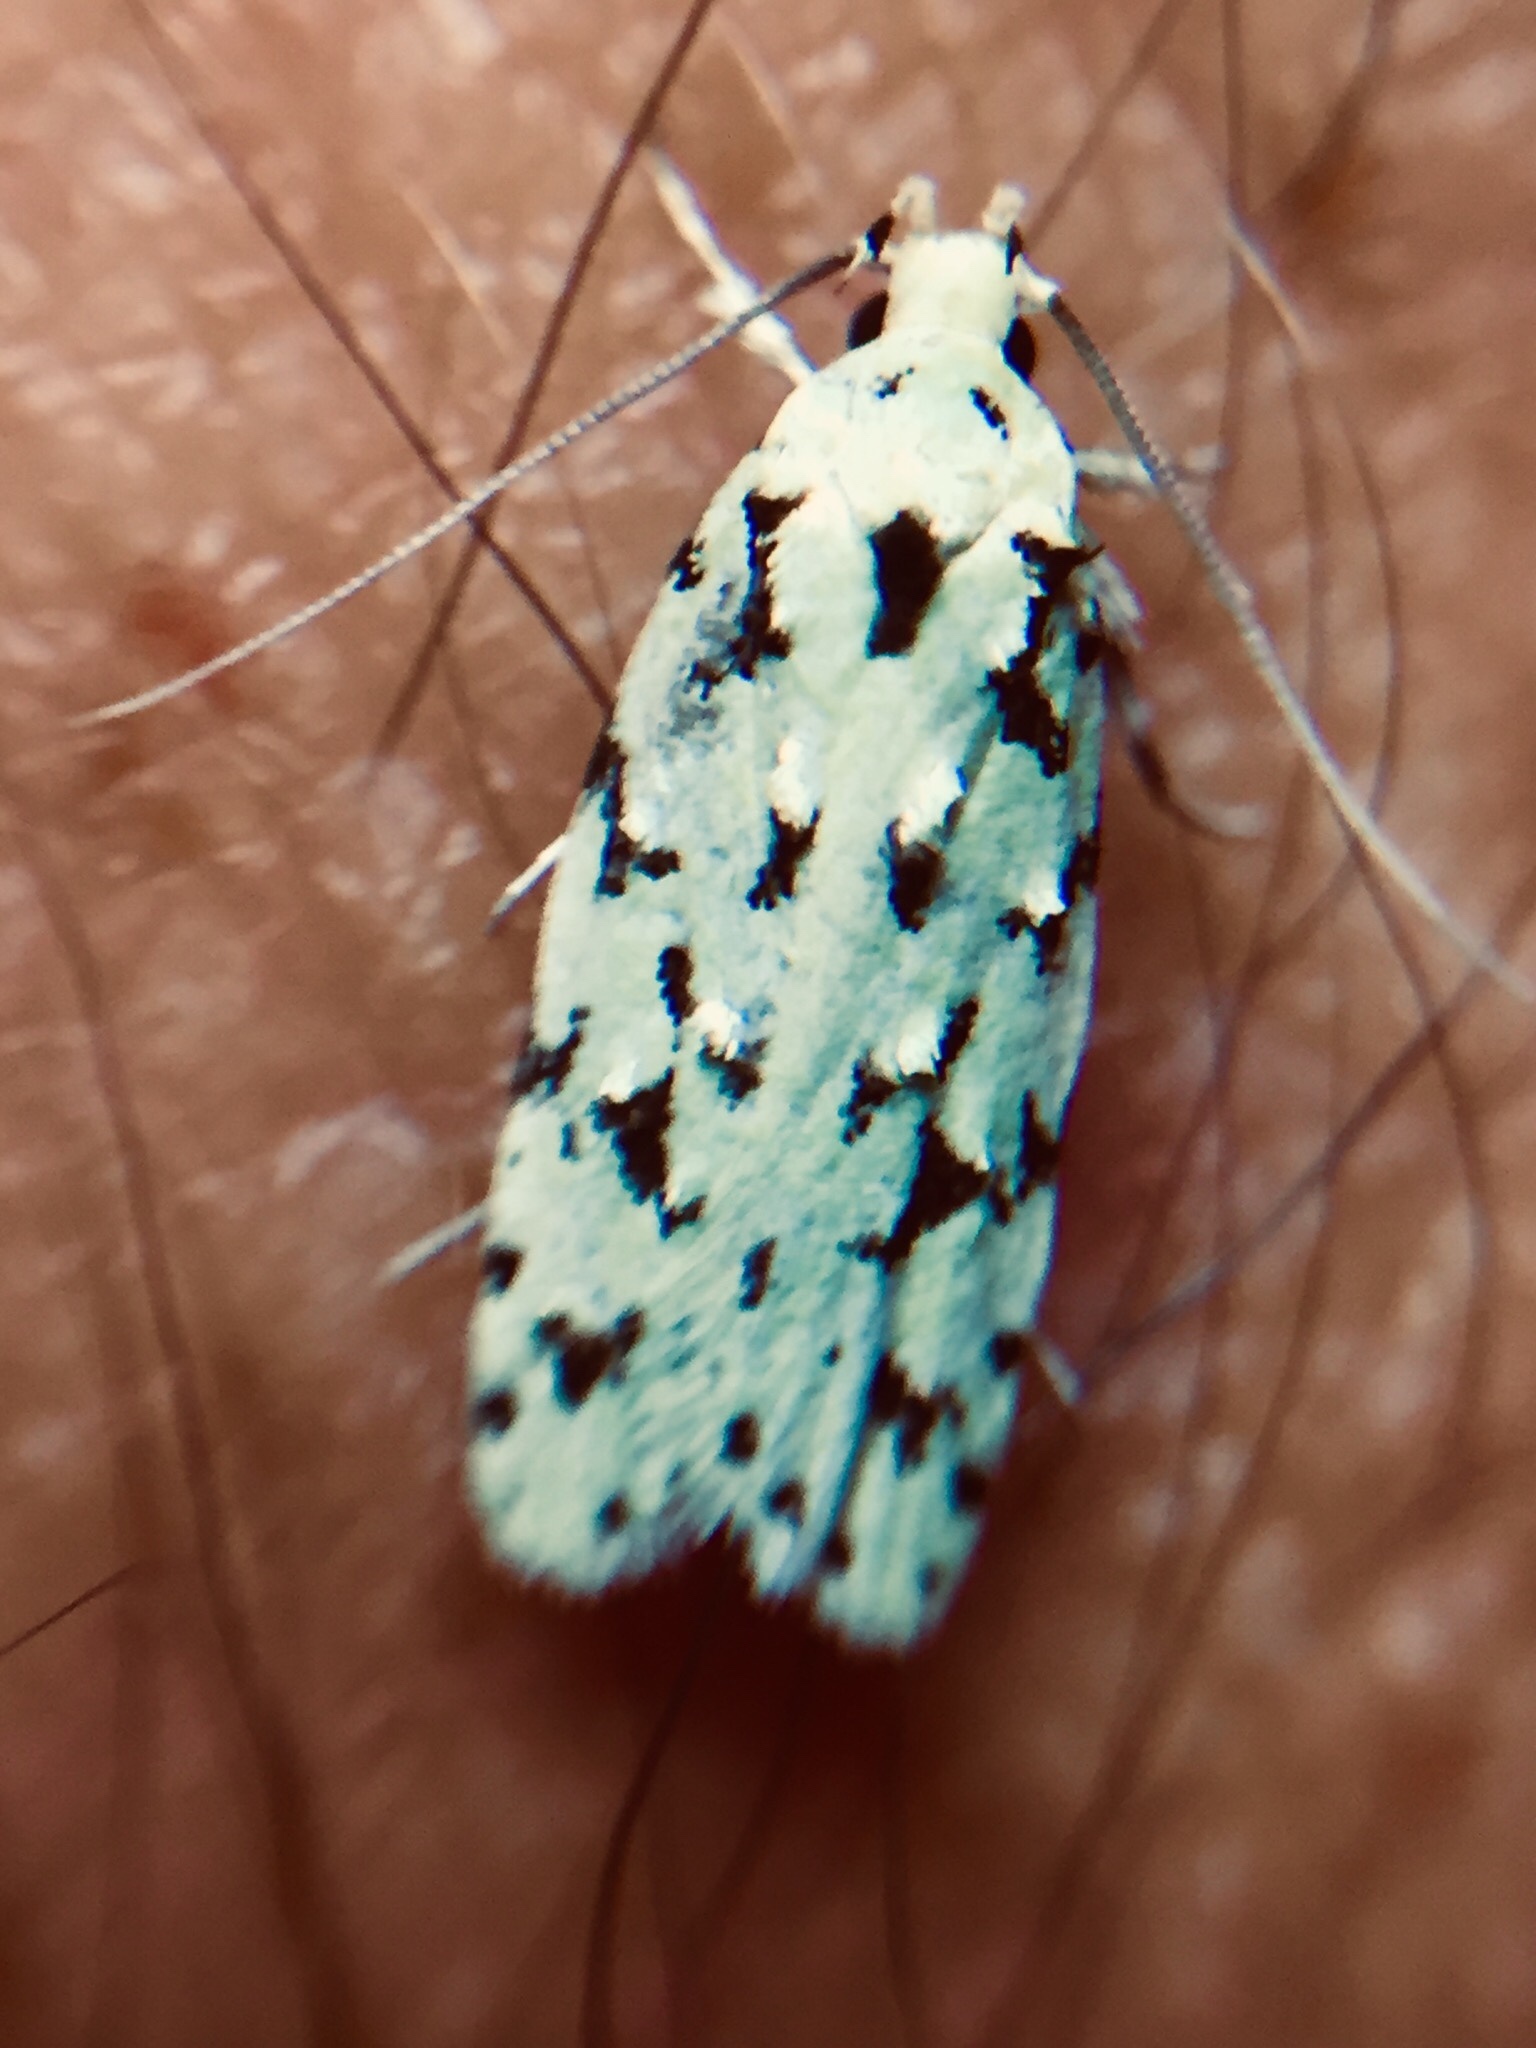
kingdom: Animalia
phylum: Arthropoda
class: Insecta
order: Lepidoptera
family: Oecophoridae
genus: Izatha
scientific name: Izatha peroneanella
